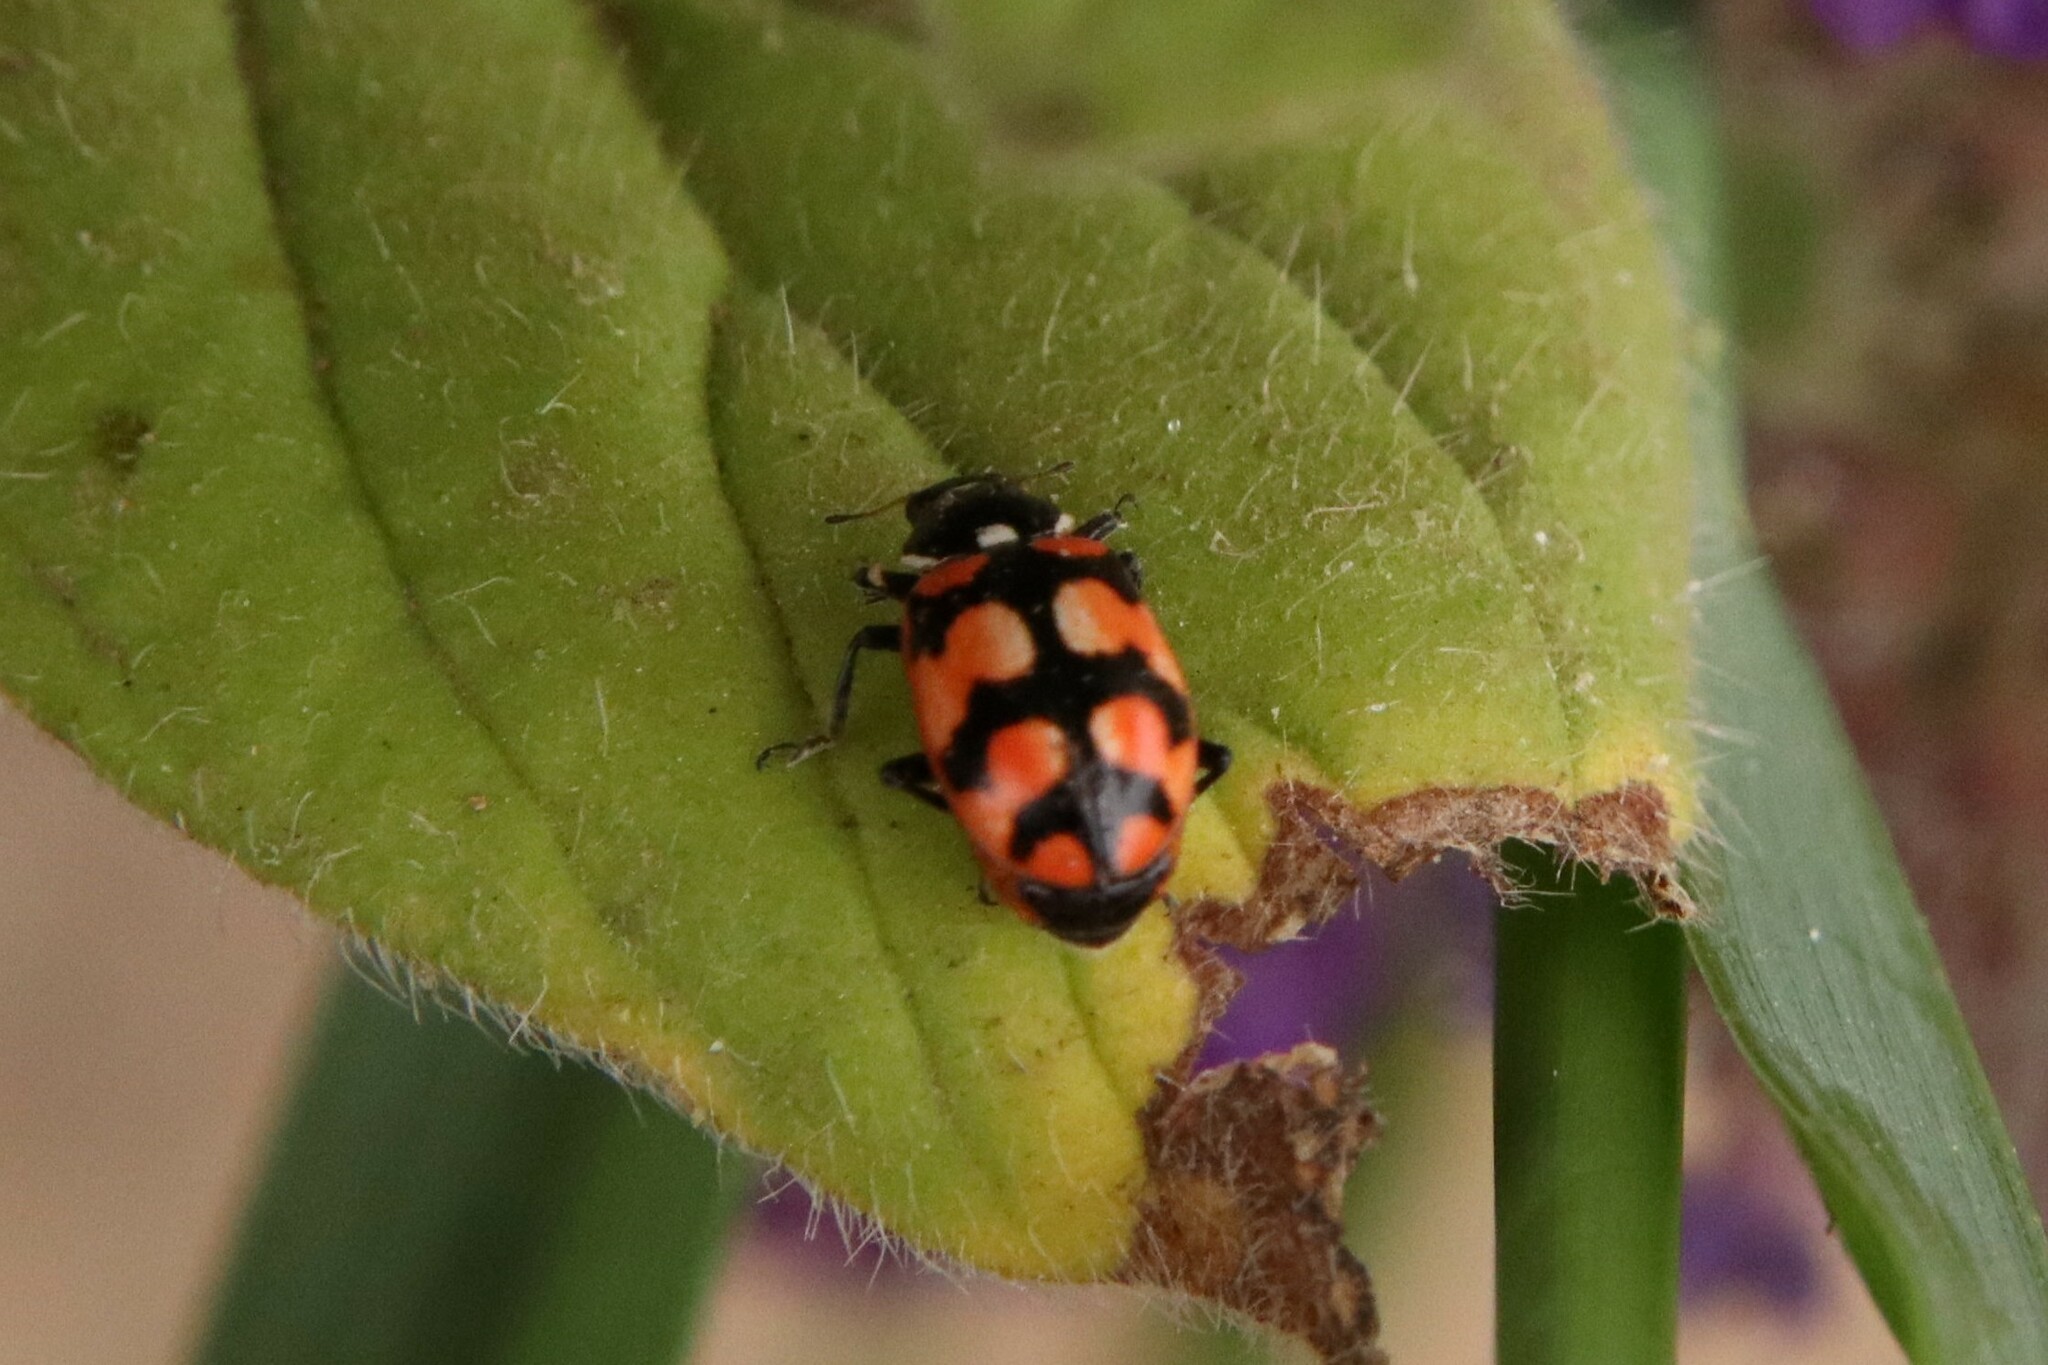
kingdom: Animalia
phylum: Arthropoda
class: Insecta
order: Coleoptera
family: Coccinellidae
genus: Eriopis
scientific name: Eriopis chilensis
